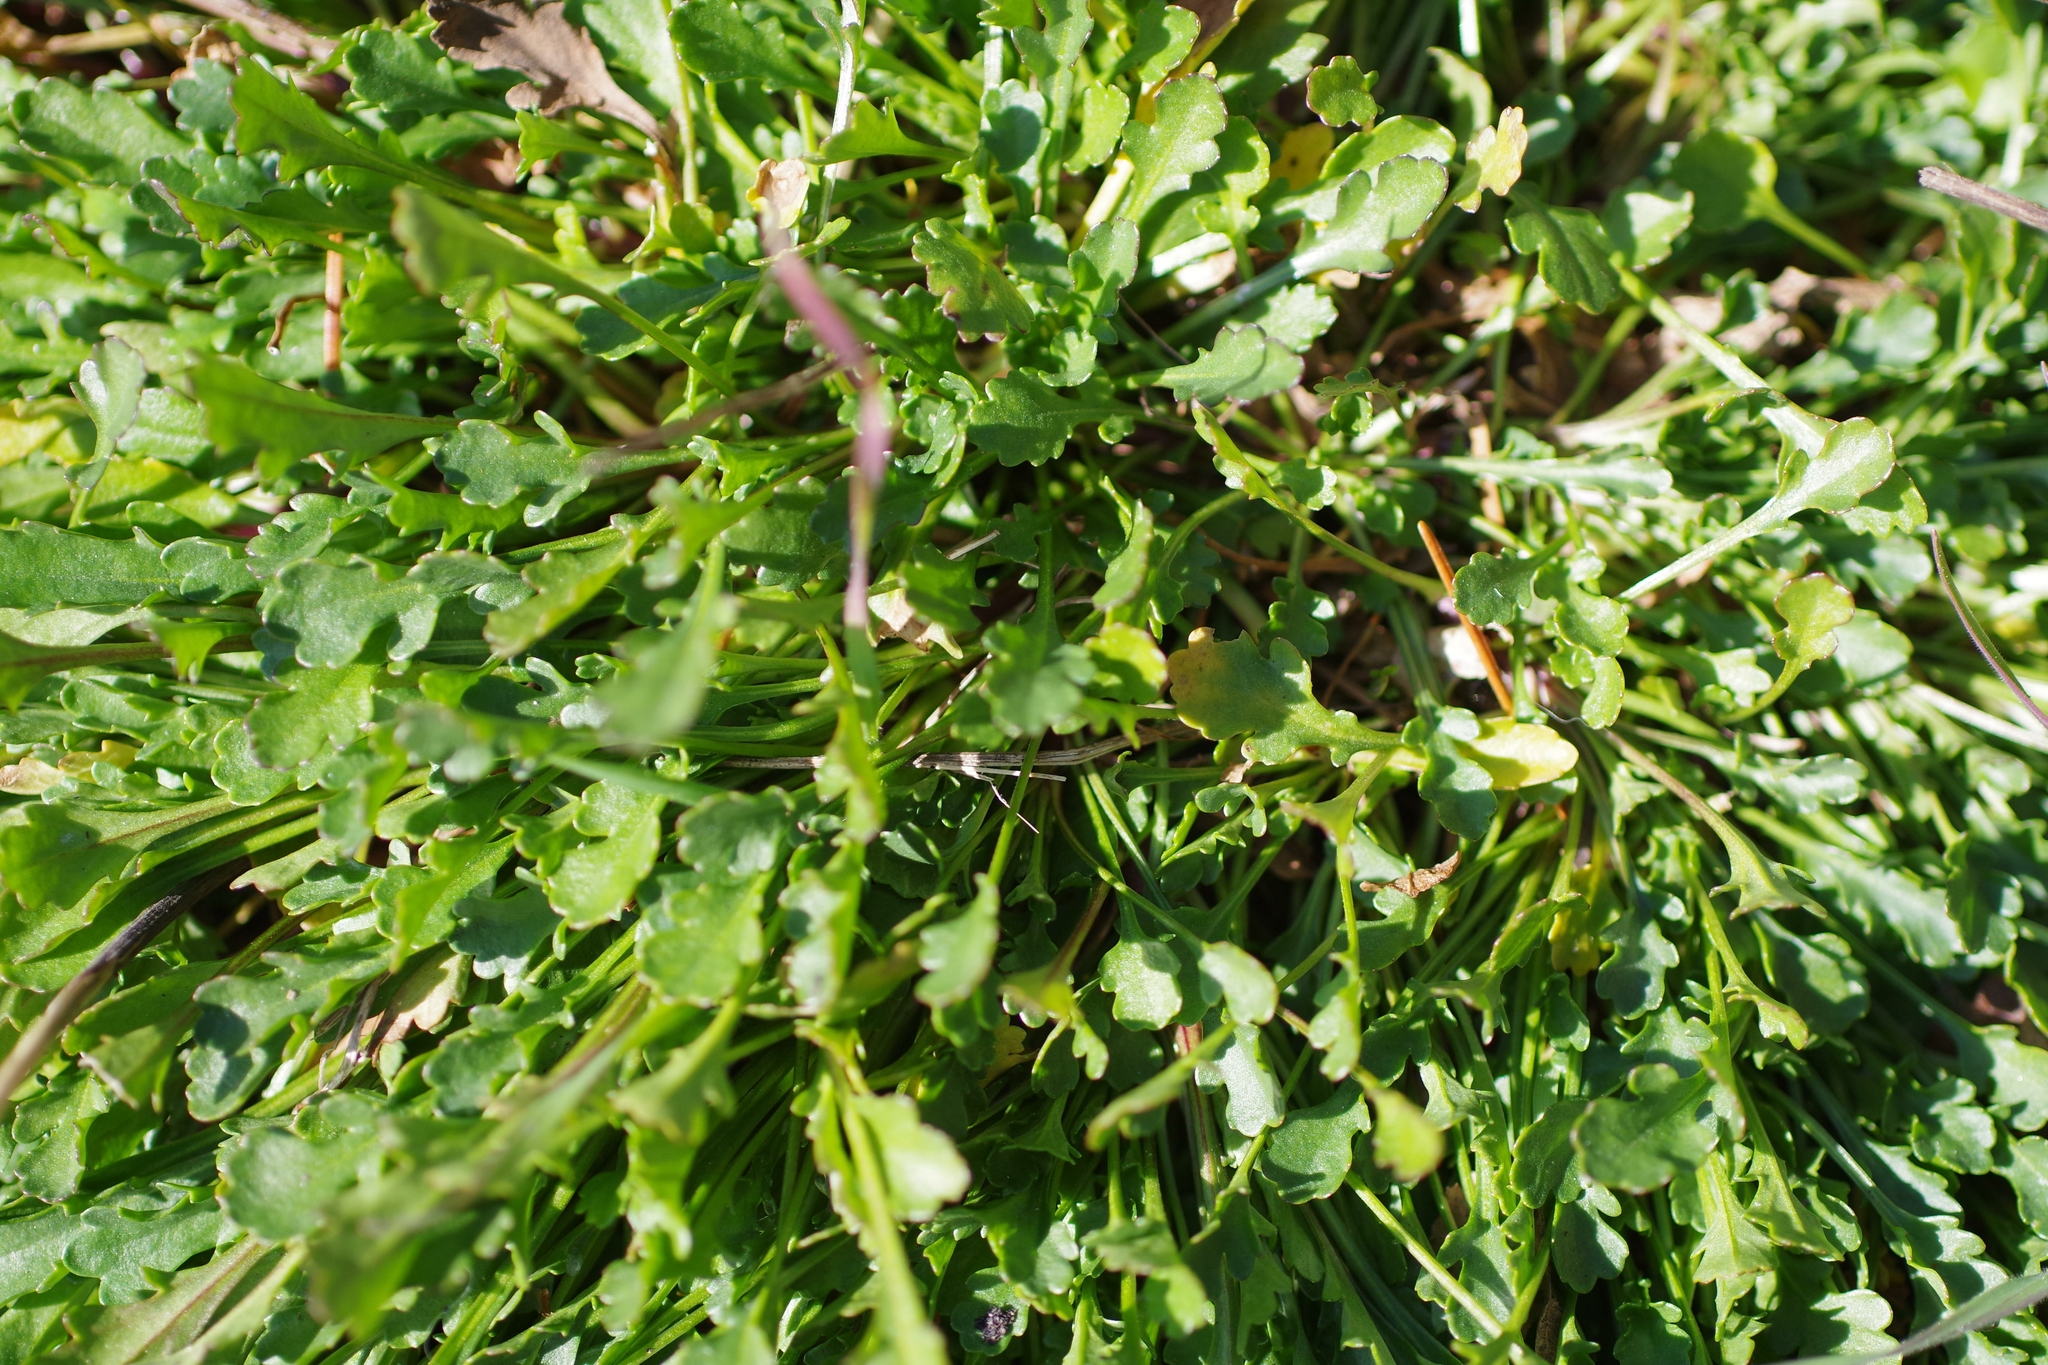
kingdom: Plantae
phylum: Tracheophyta
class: Magnoliopsida
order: Asterales
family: Asteraceae
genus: Leucanthemum
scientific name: Leucanthemum vulgare
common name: Oxeye daisy
